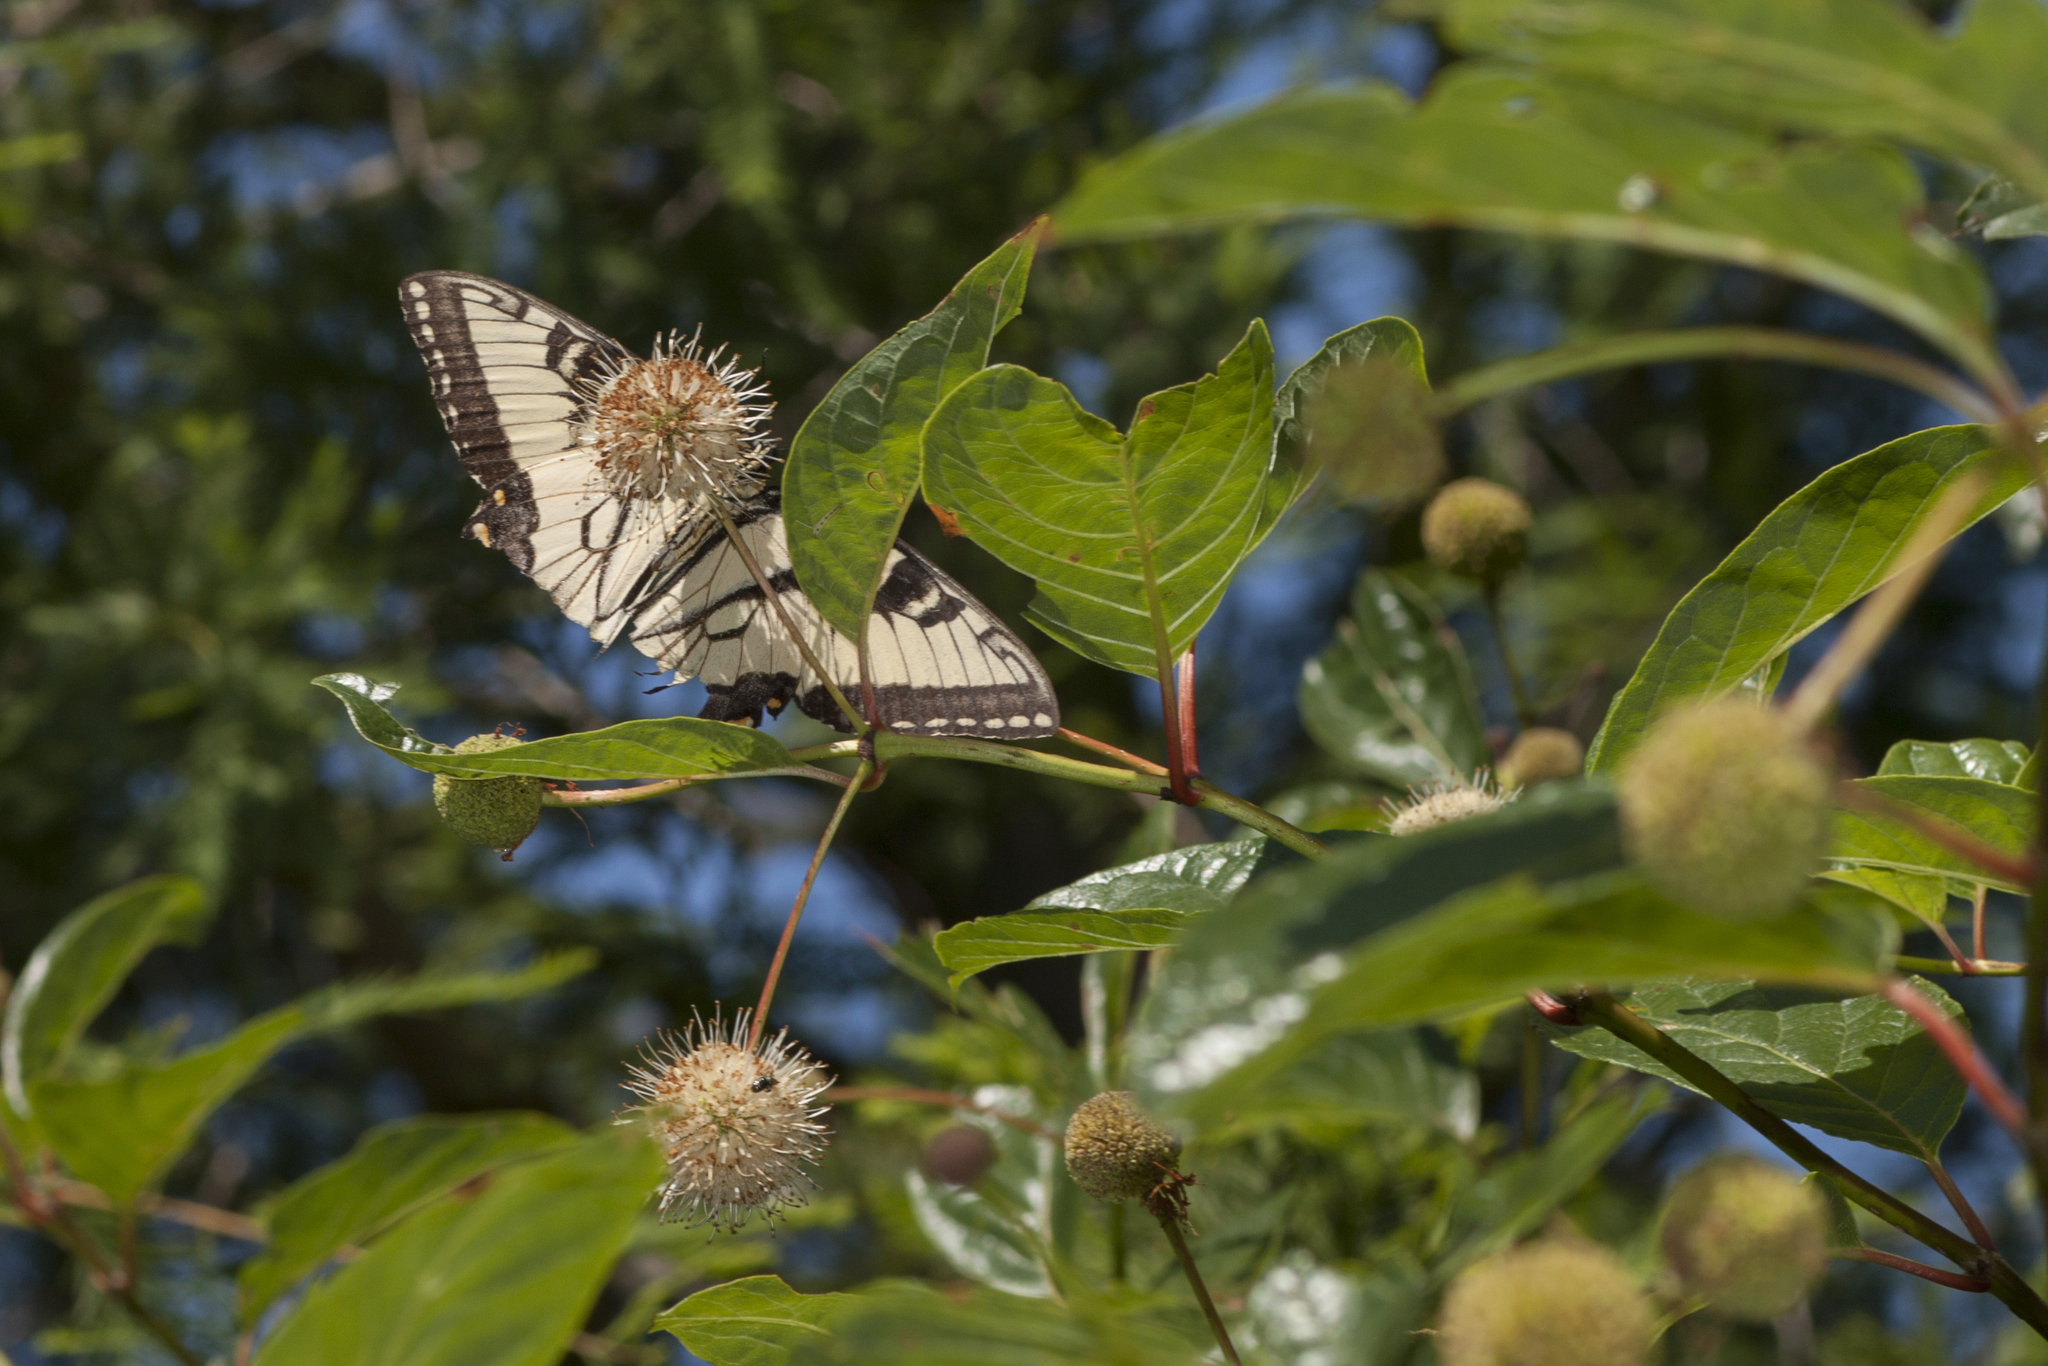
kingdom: Animalia
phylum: Arthropoda
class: Insecta
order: Lepidoptera
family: Papilionidae
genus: Papilio
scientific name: Papilio glaucus
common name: Tiger swallowtail
